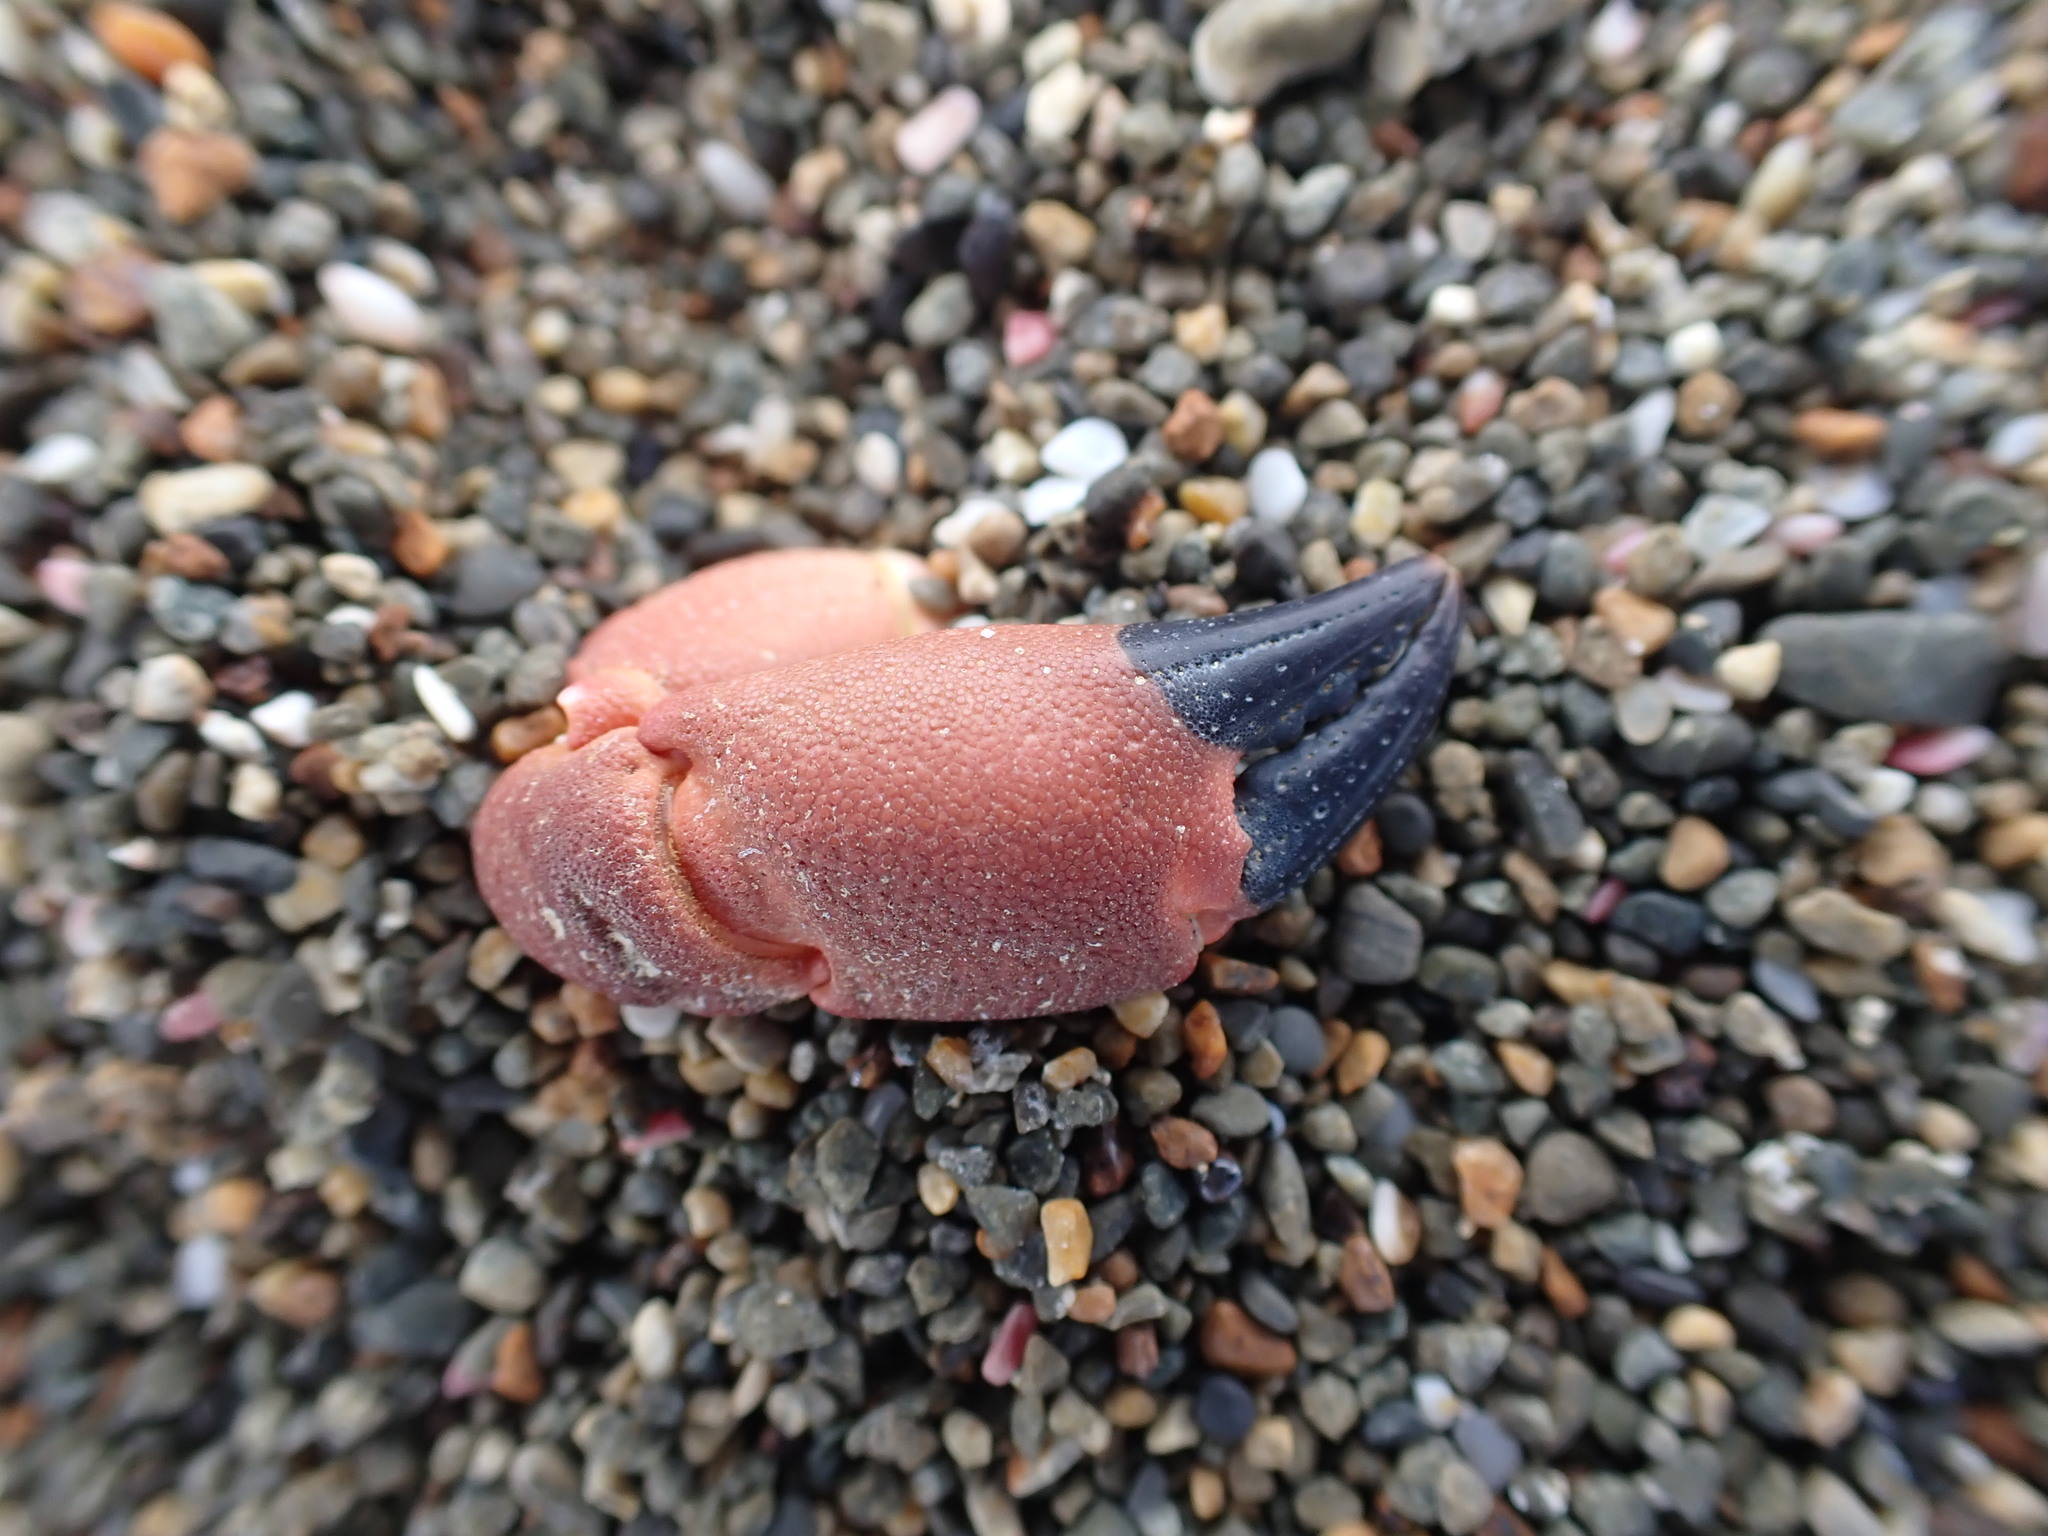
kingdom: Animalia
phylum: Arthropoda
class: Malacostraca
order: Decapoda
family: Oziidae
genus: Ozius
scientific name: Ozius deplanatus
